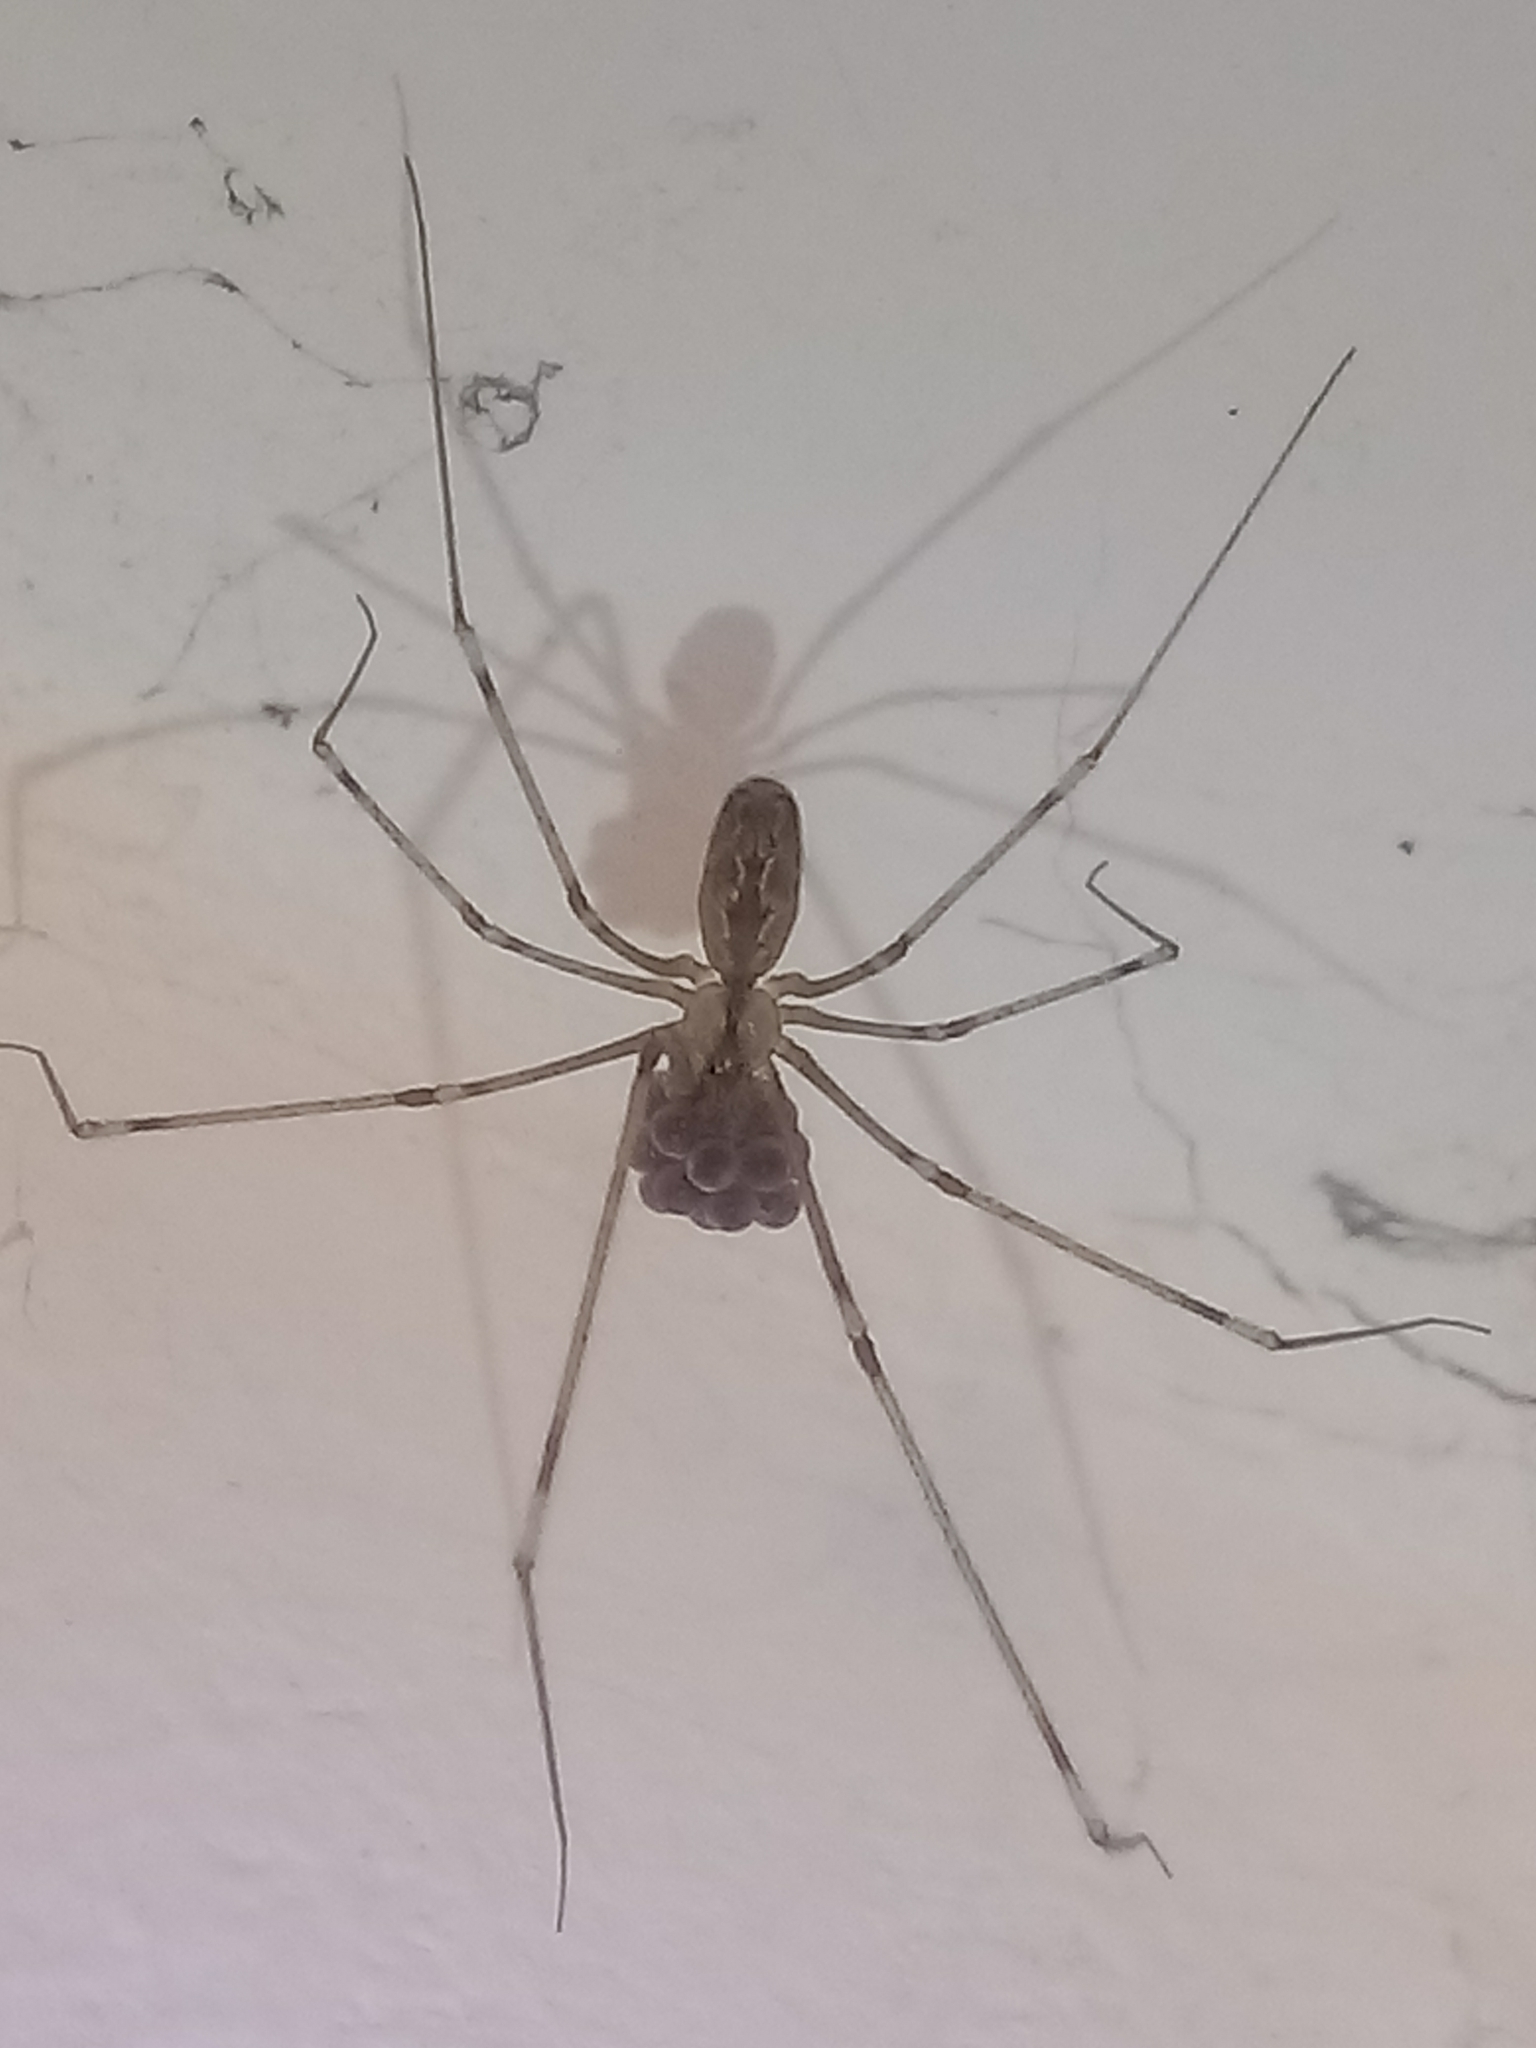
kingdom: Animalia
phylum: Arthropoda
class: Arachnida
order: Araneae
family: Pholcidae
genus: Pholcus
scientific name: Pholcus phalangioides
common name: Longbodied cellar spider
